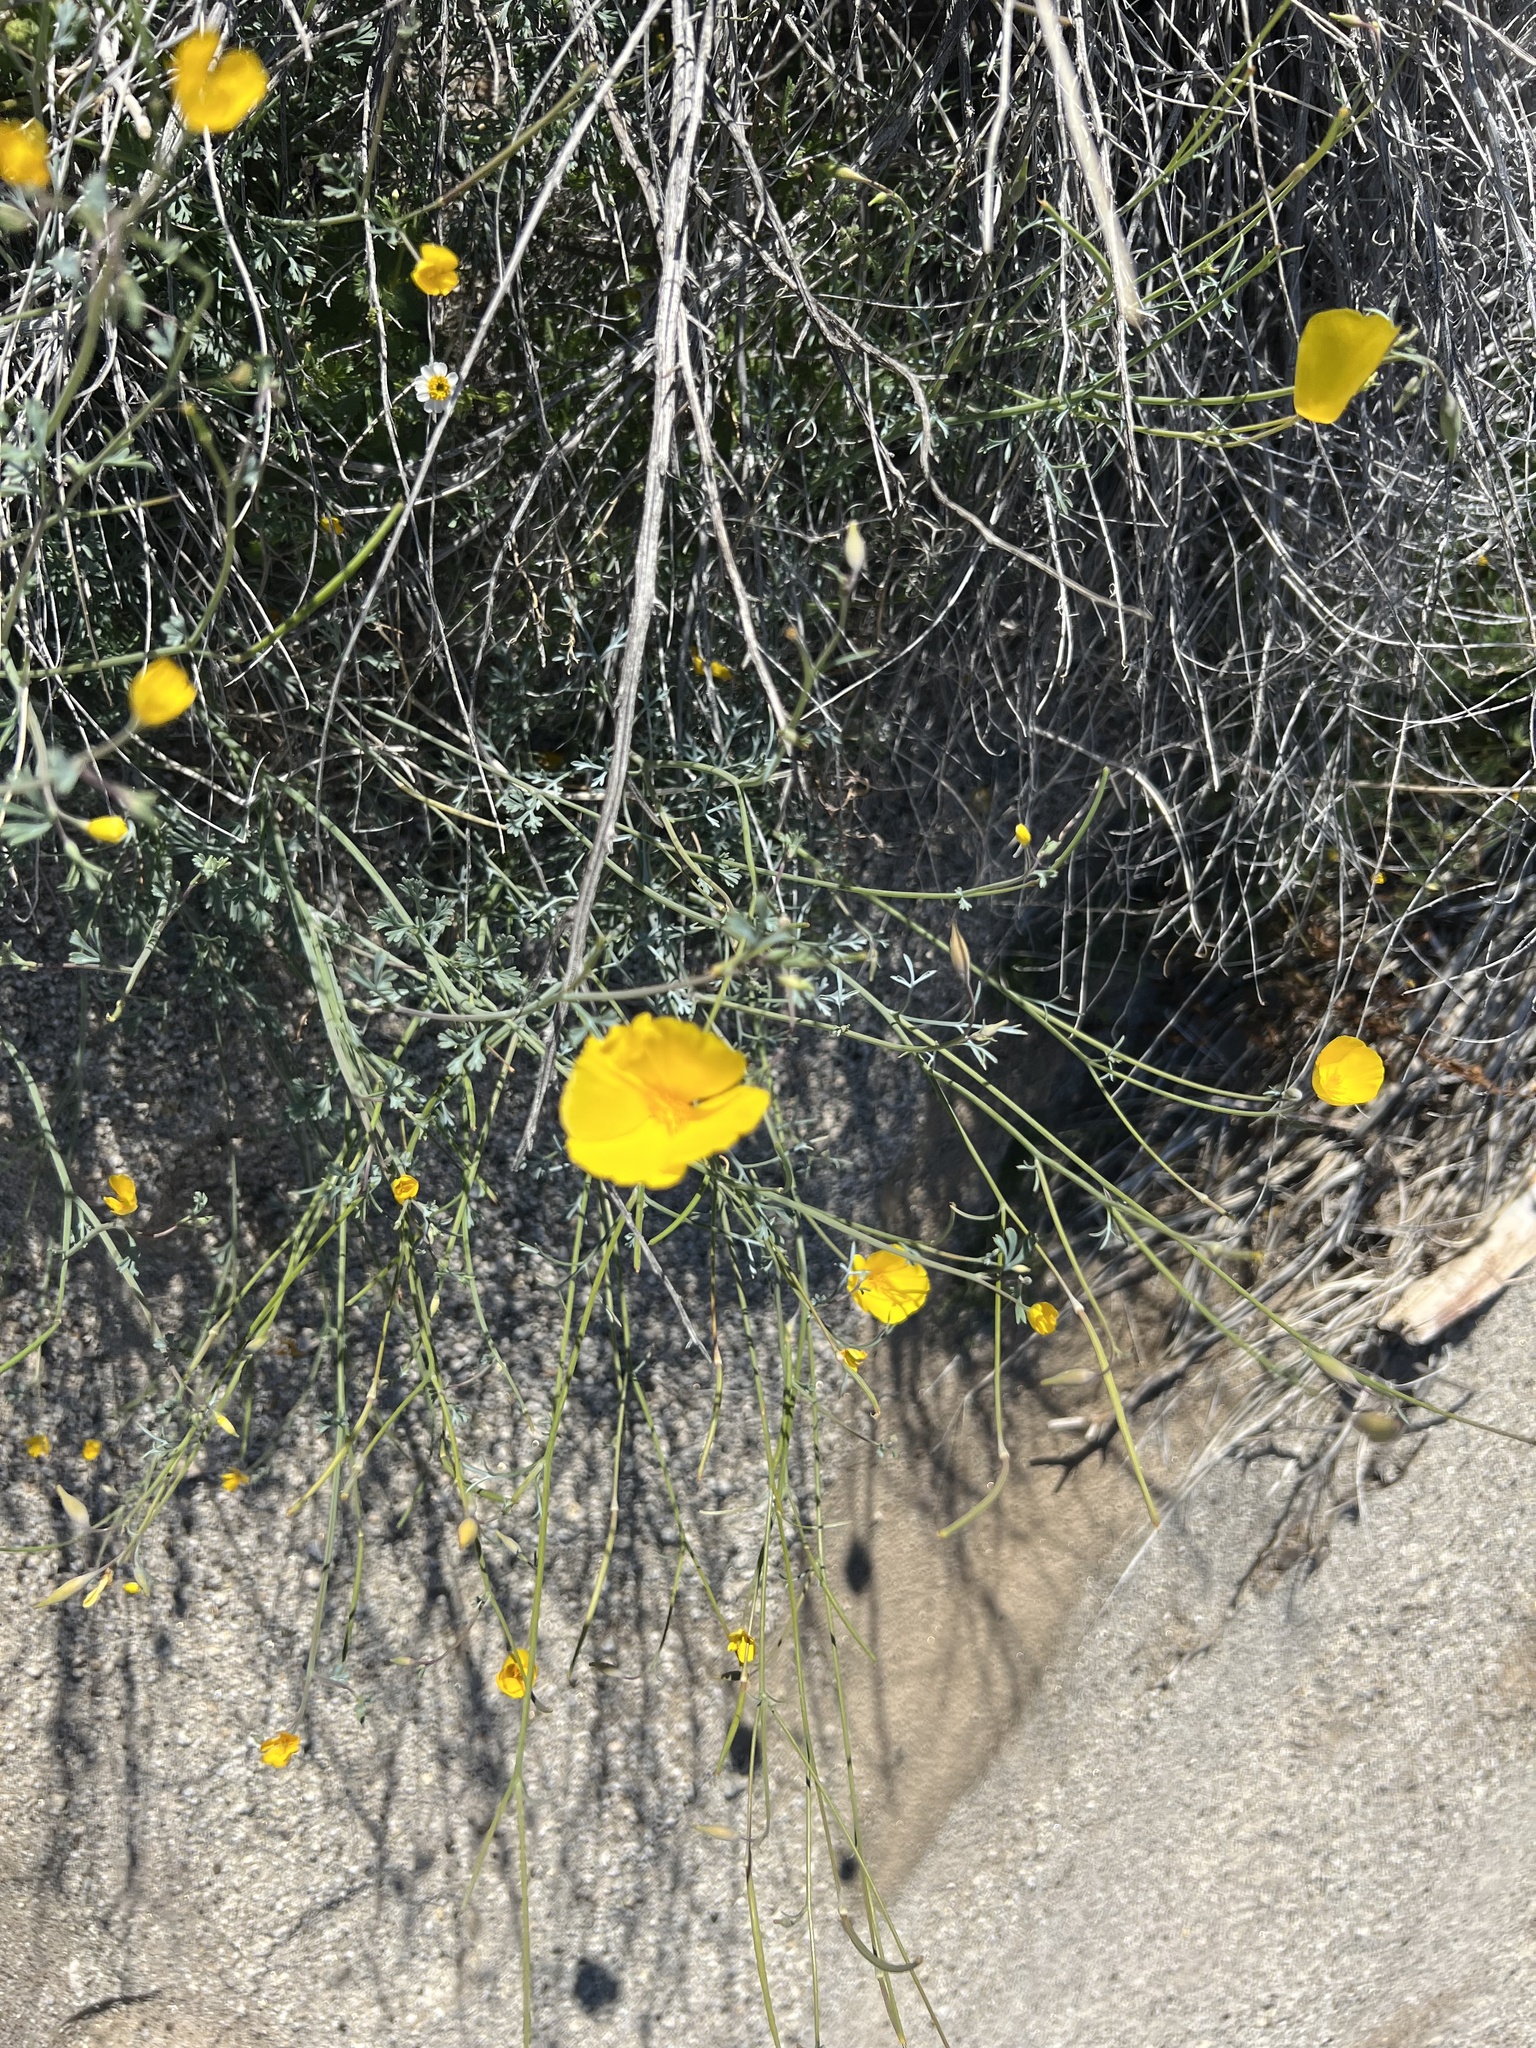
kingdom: Plantae
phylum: Tracheophyta
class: Magnoliopsida
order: Ranunculales
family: Papaveraceae
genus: Eschscholzia
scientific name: Eschscholzia parishii
